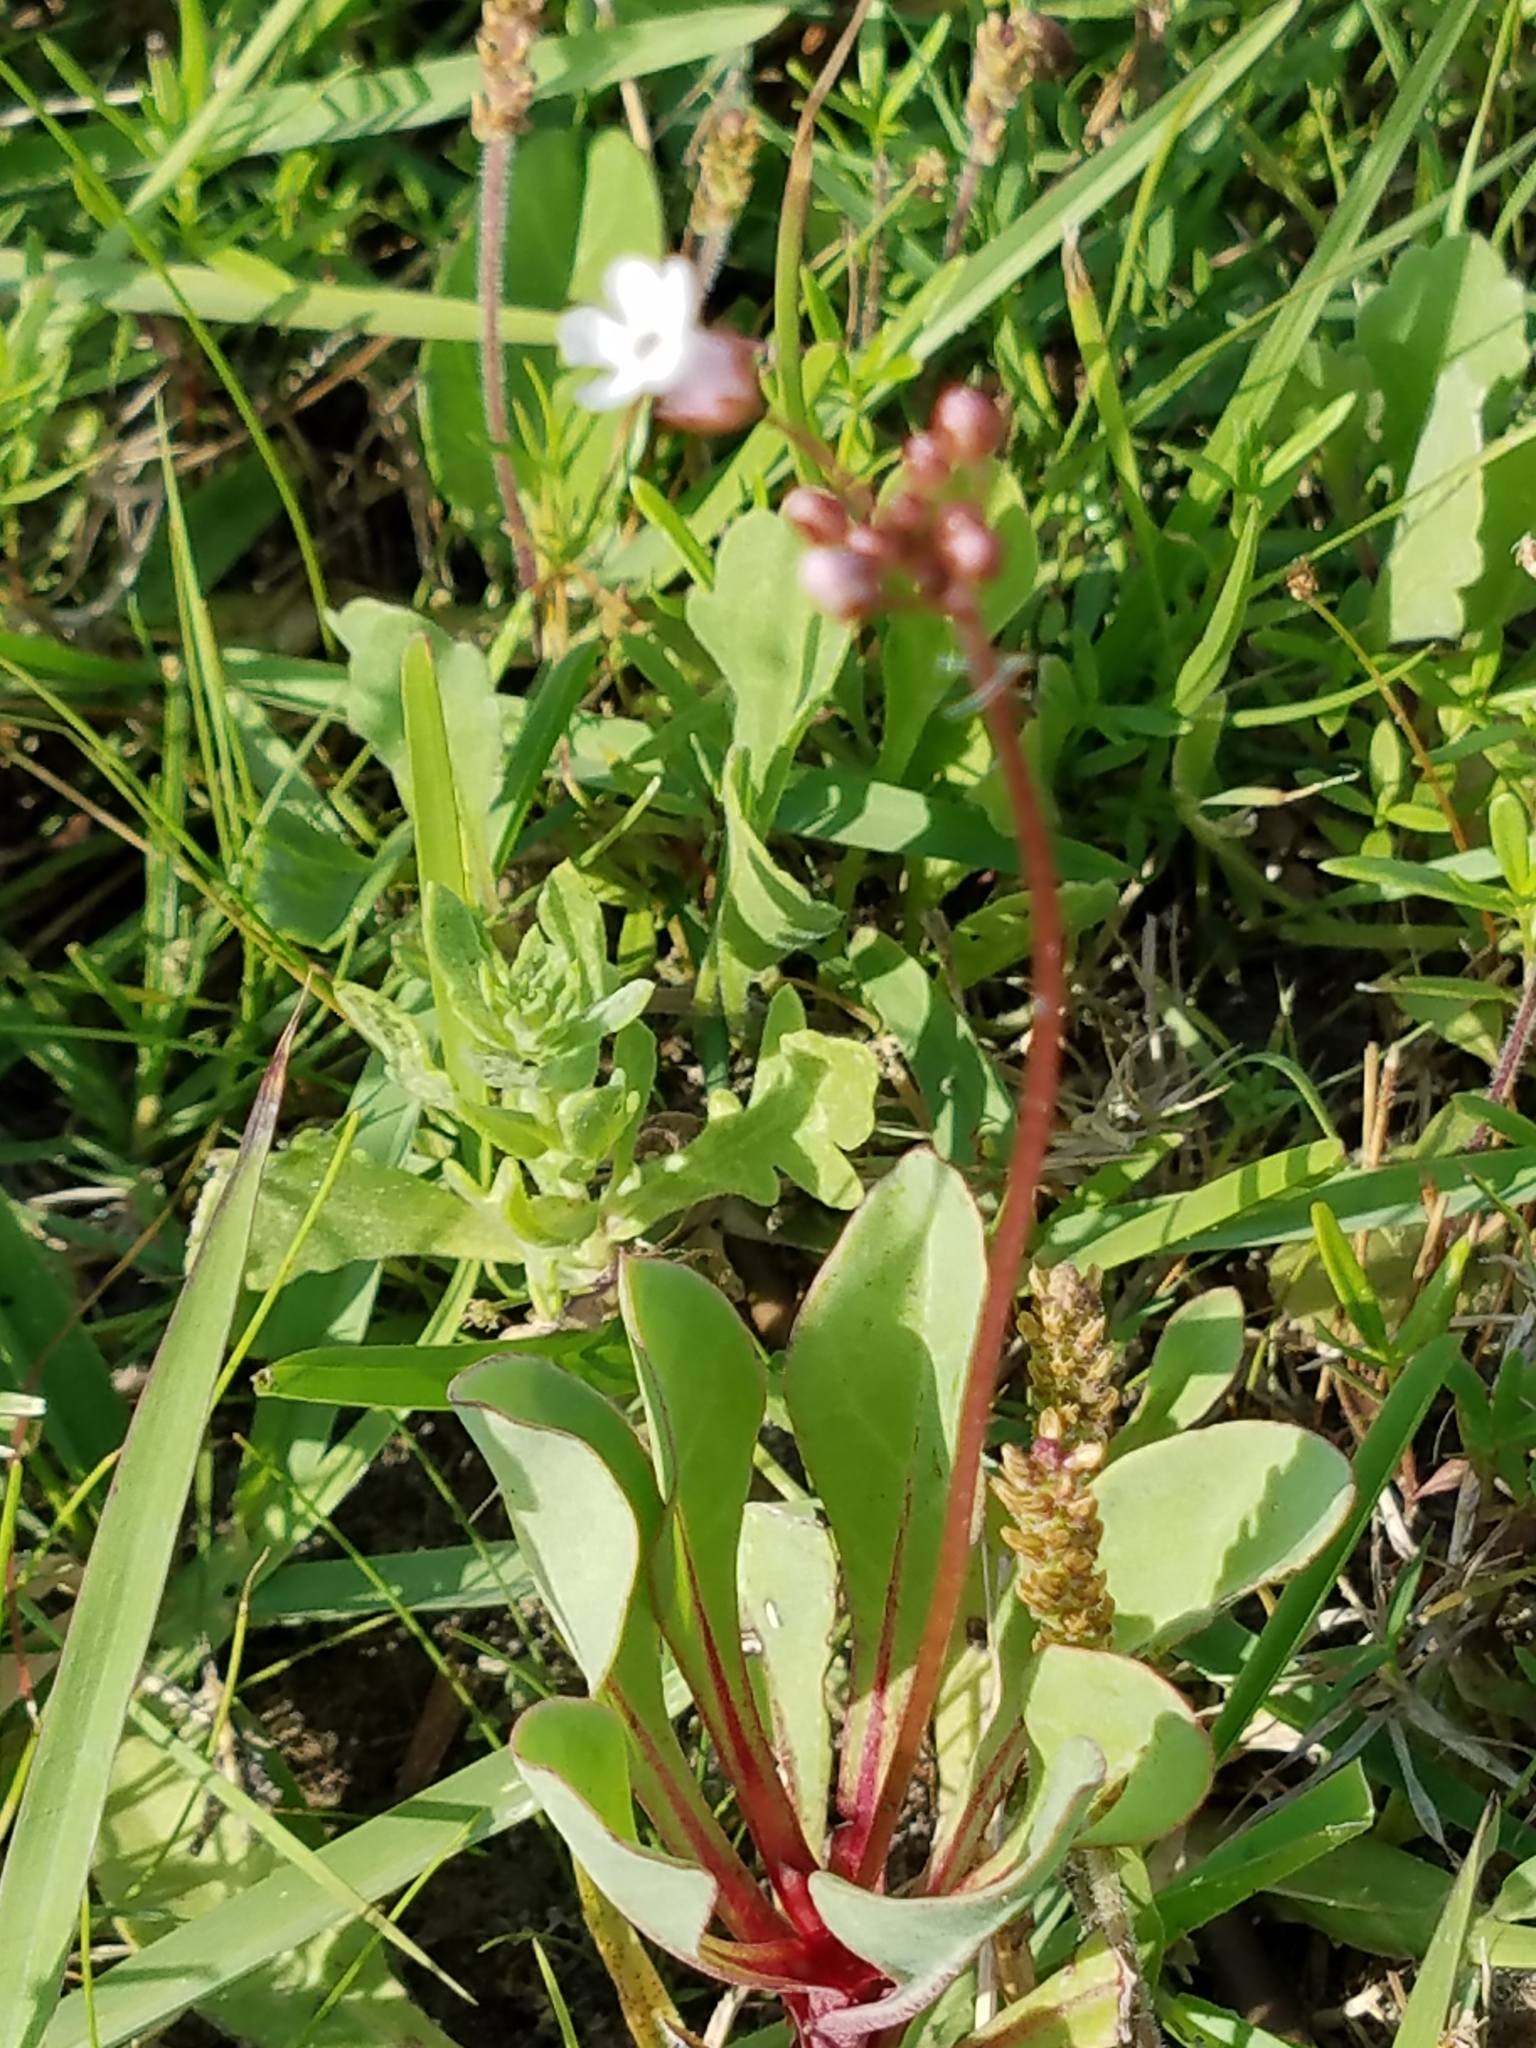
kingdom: Plantae
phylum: Tracheophyta
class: Magnoliopsida
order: Ericales
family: Primulaceae
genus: Samolus
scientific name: Samolus ebracteatus
